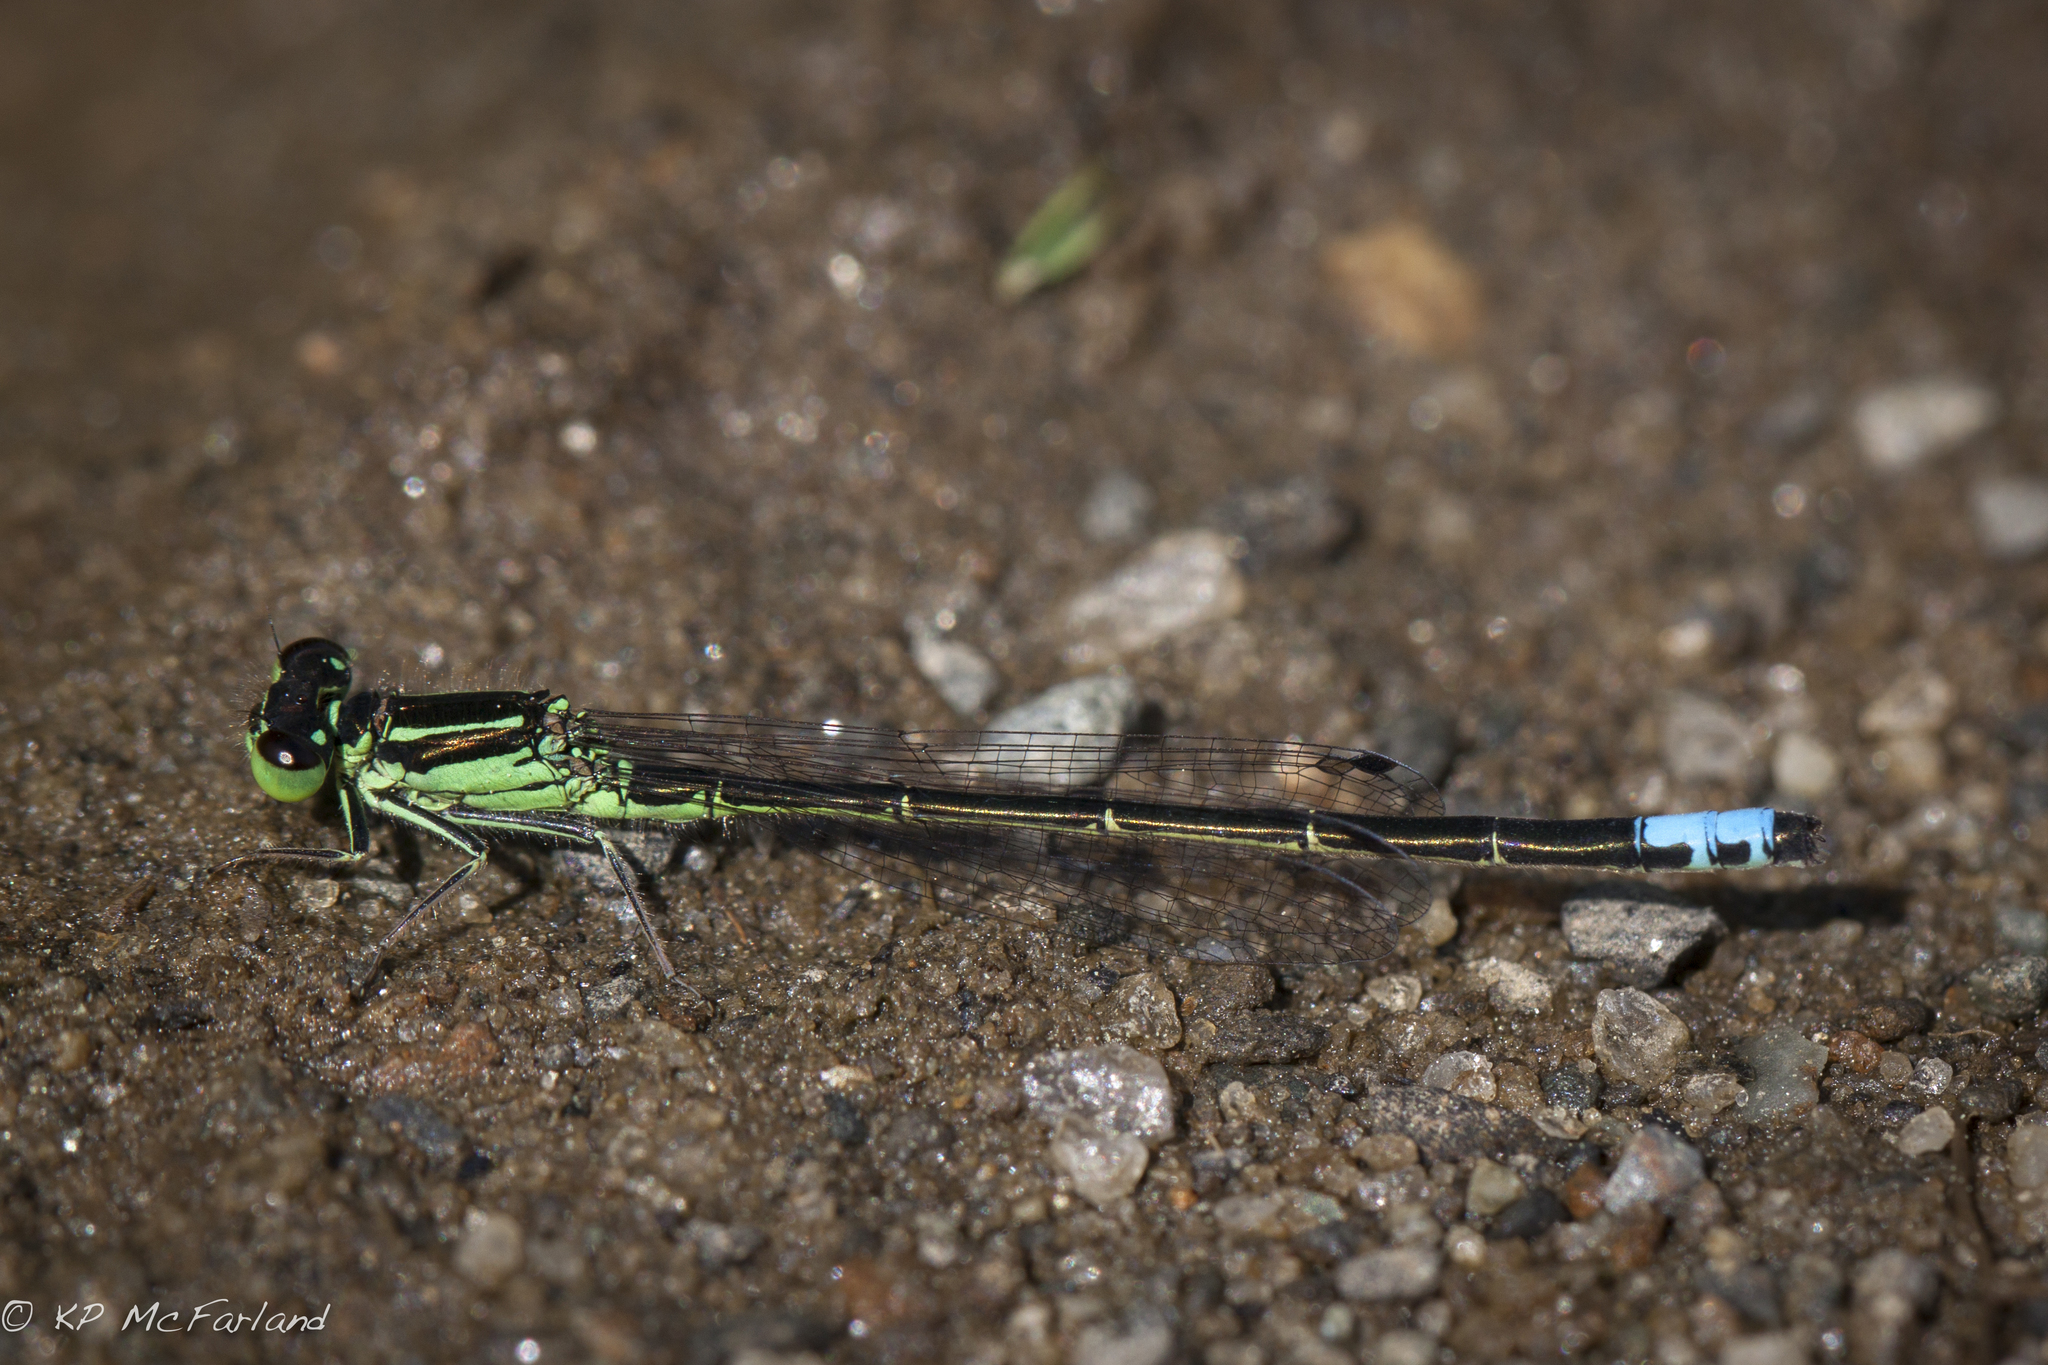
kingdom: Animalia
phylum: Arthropoda
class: Insecta
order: Odonata
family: Coenagrionidae
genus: Ischnura
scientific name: Ischnura verticalis
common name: Eastern forktail
